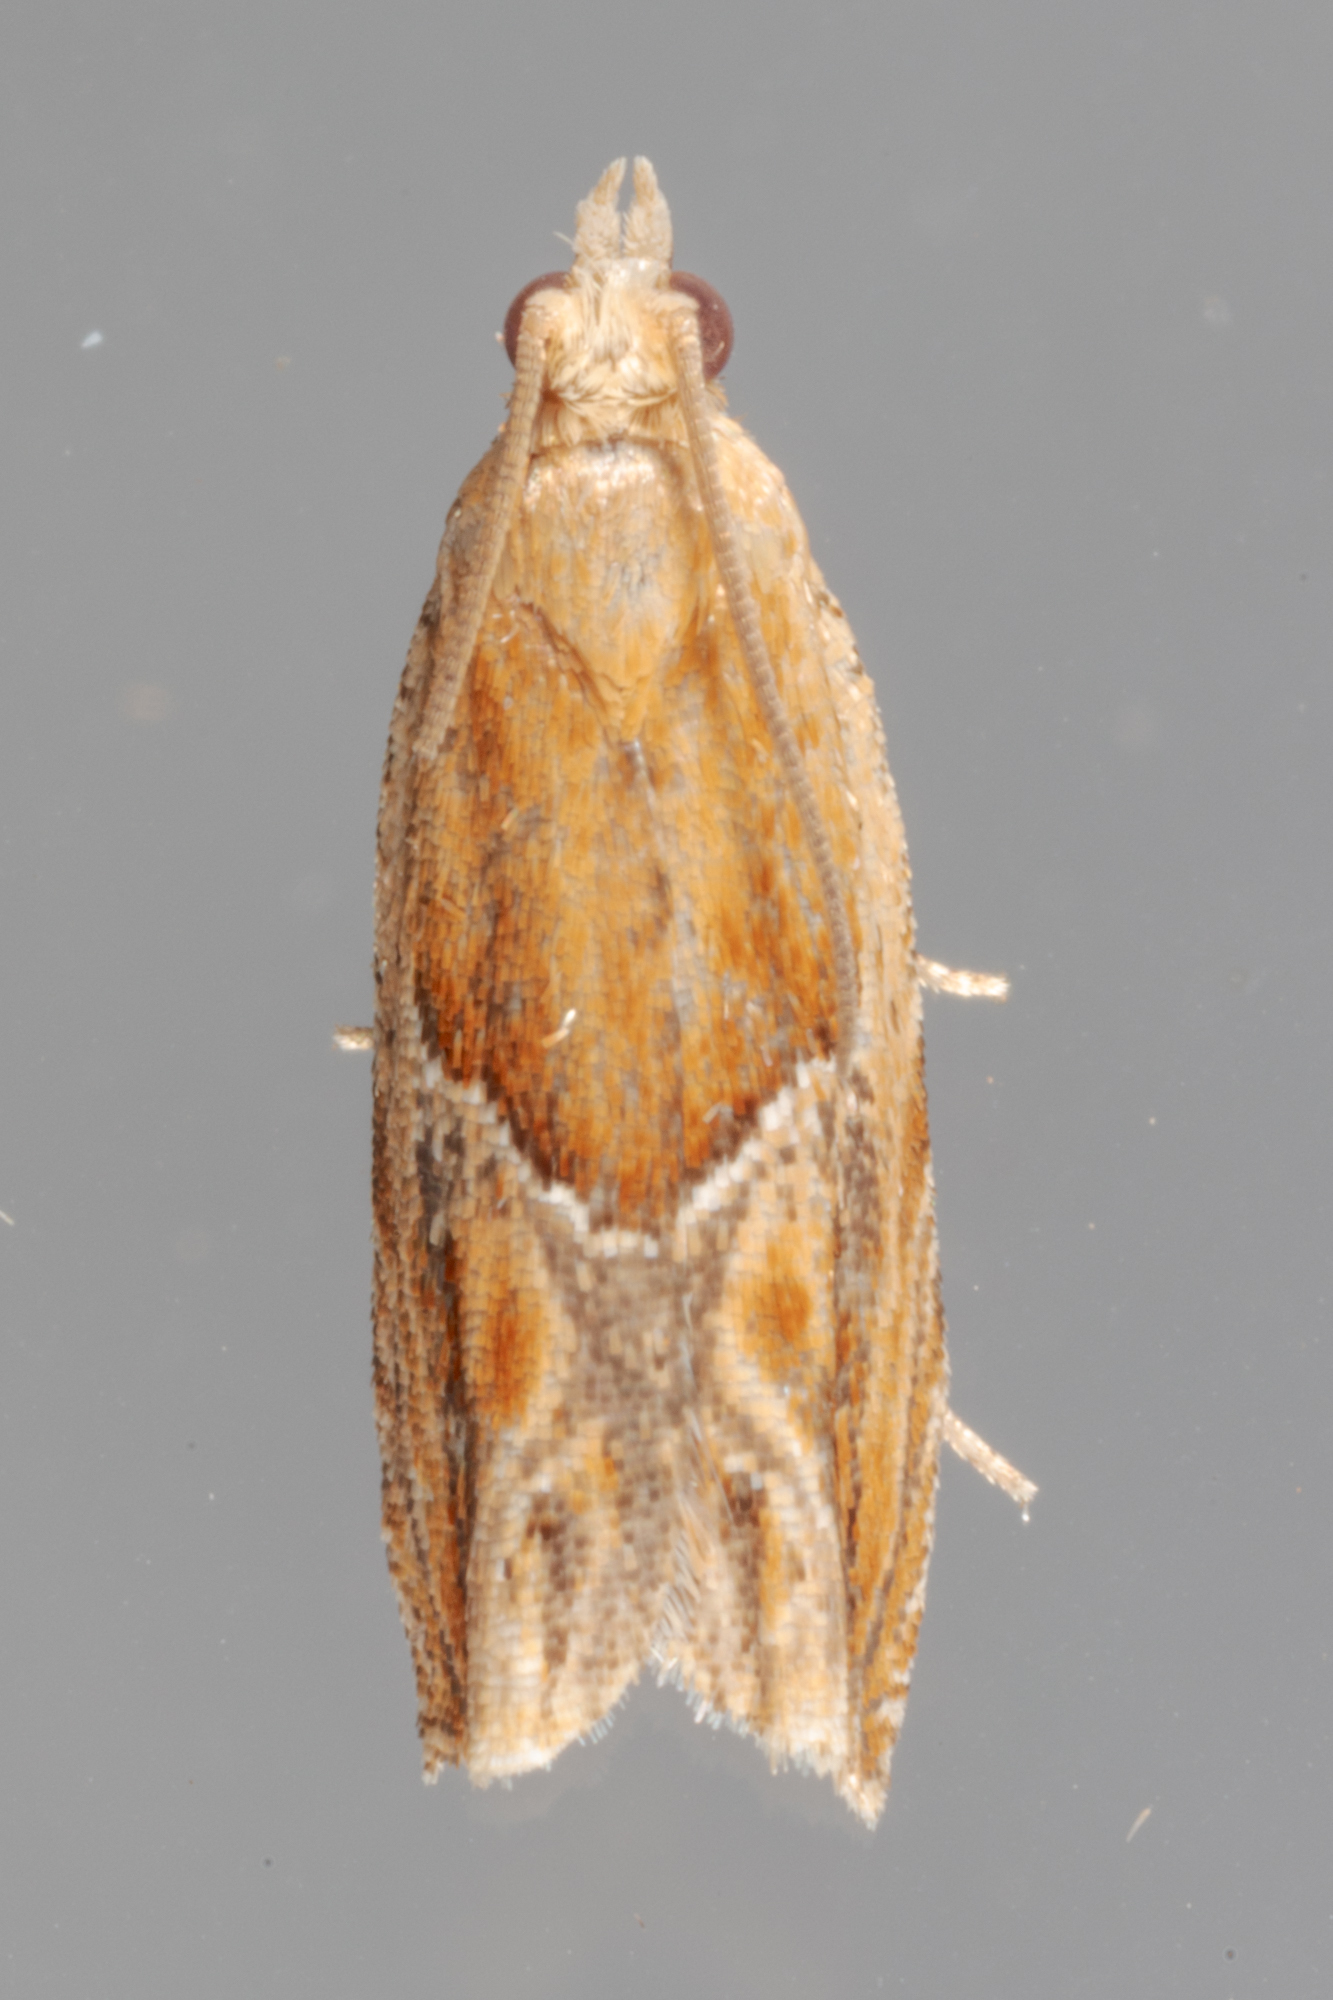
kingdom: Animalia
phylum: Arthropoda
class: Insecta
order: Lepidoptera
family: Tortricidae
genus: Ancylis
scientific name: Ancylis comptana
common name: Little roller
